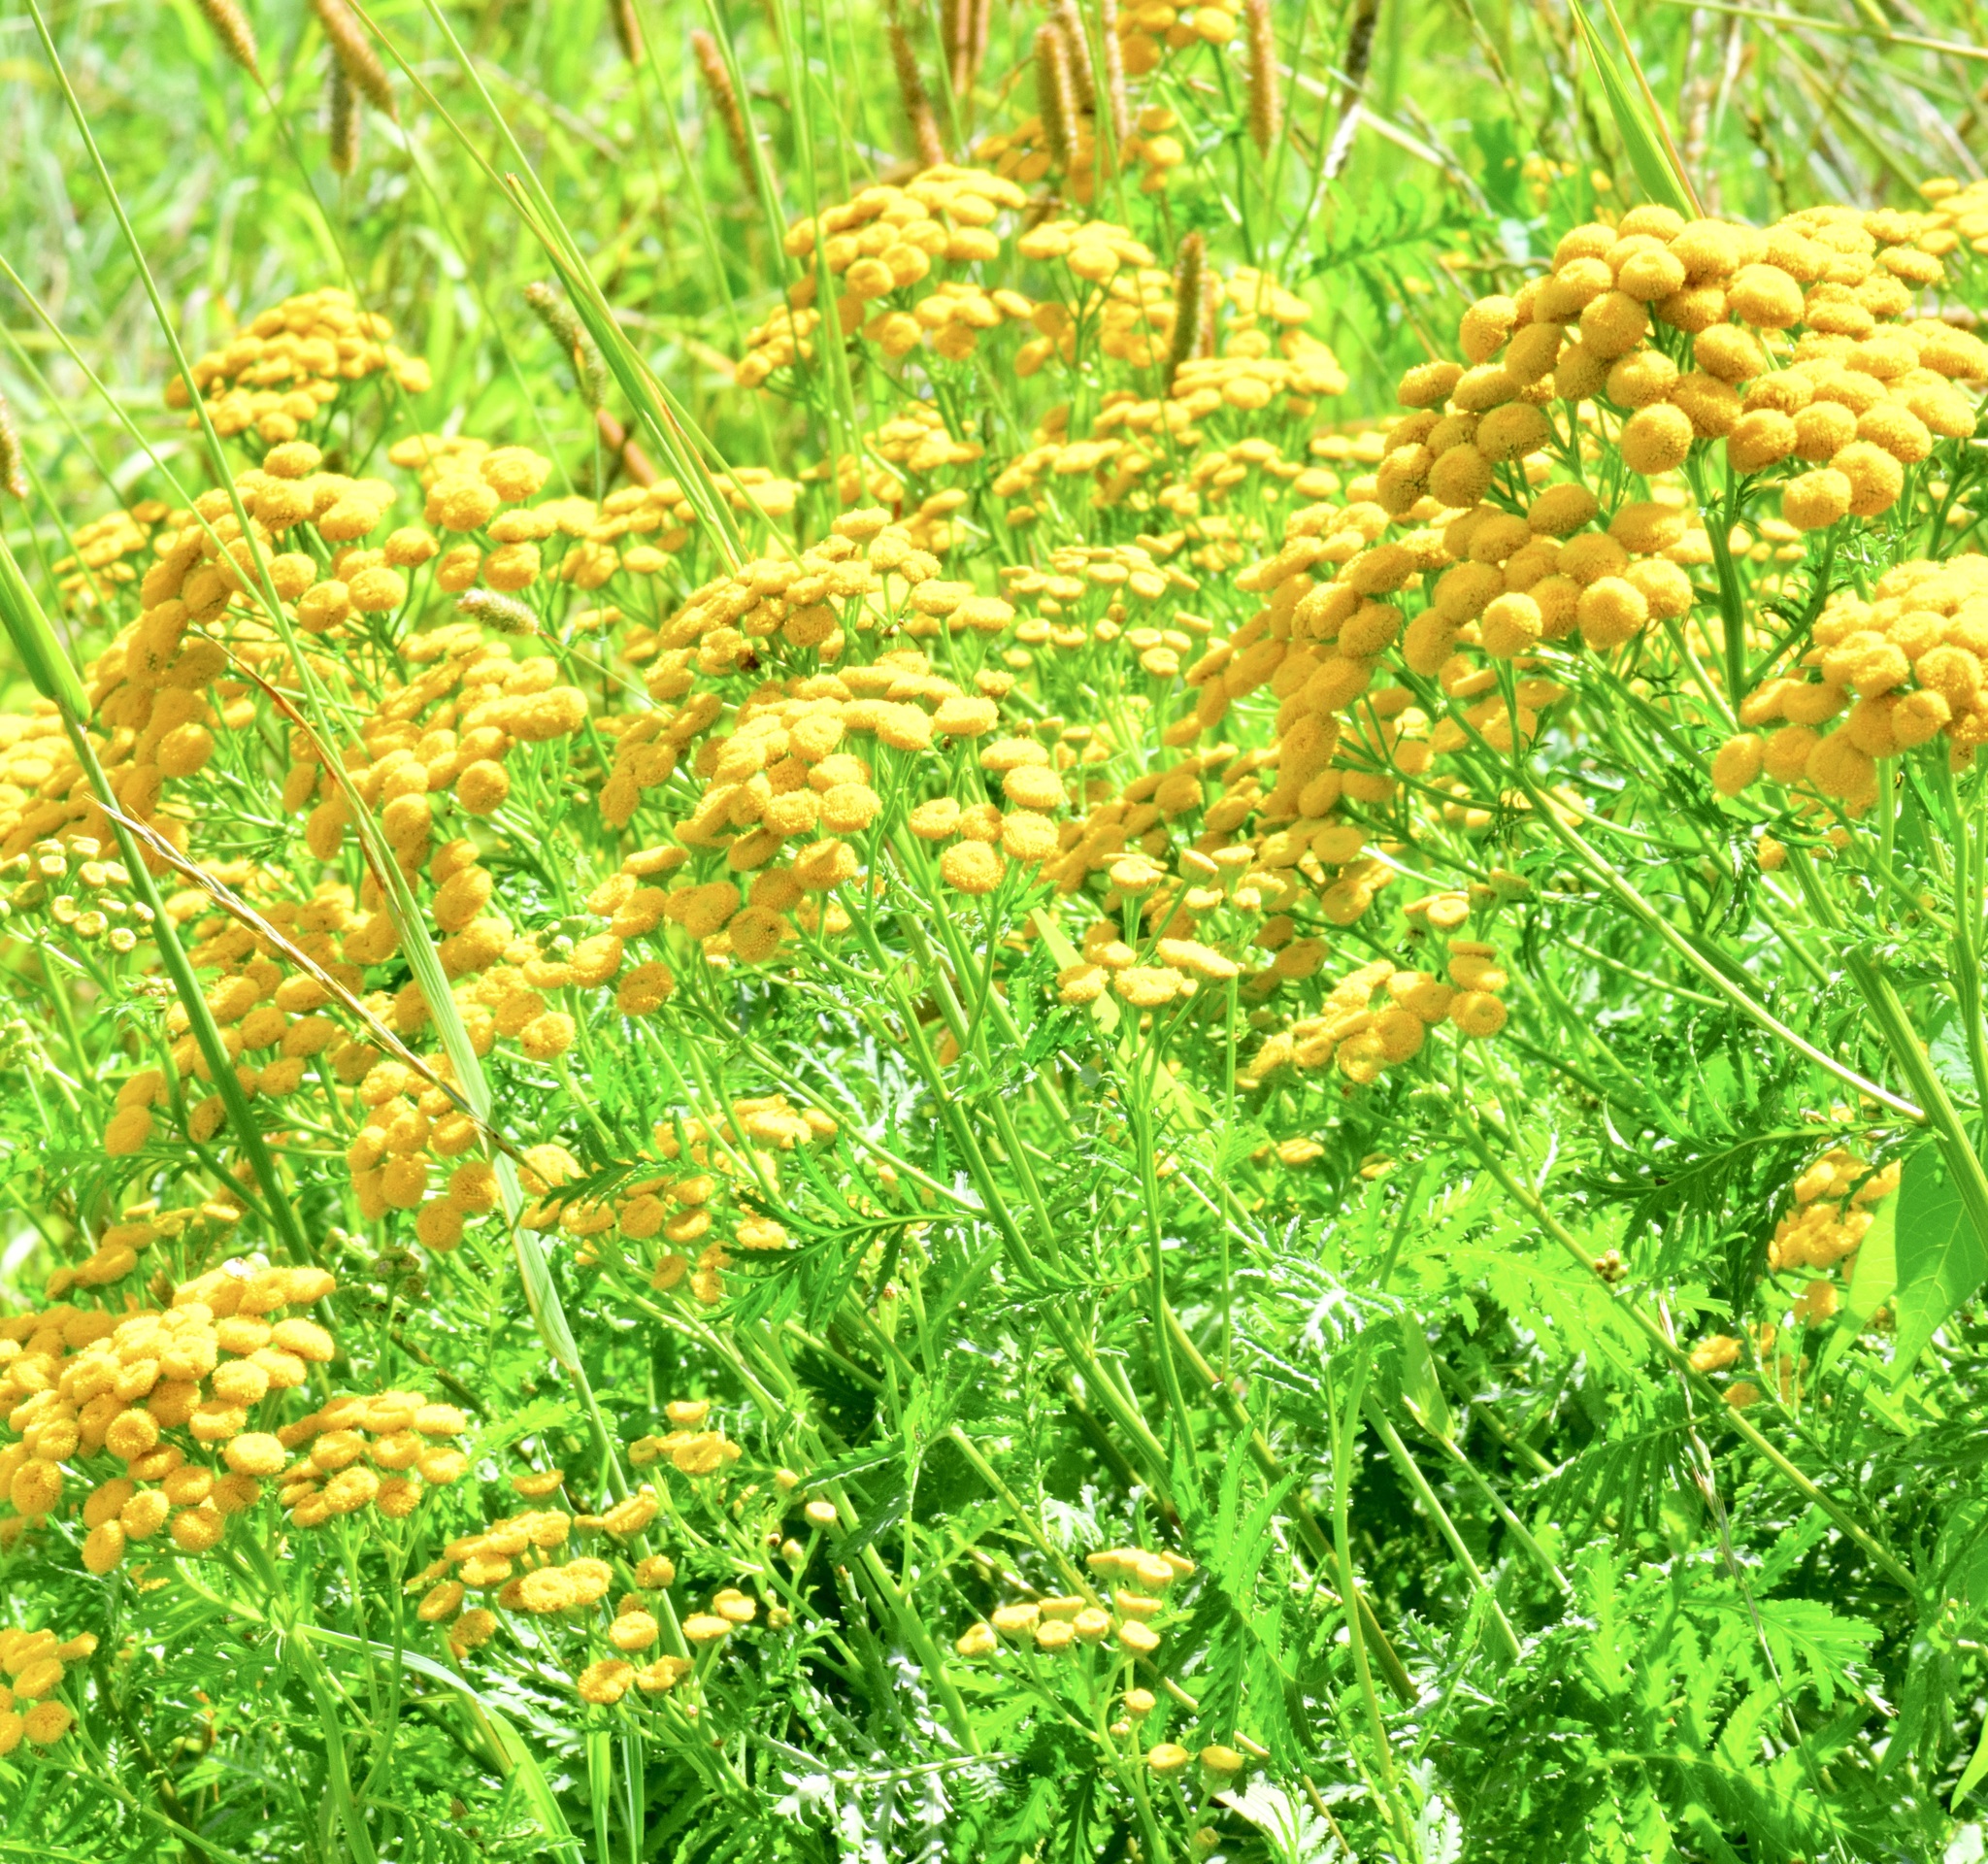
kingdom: Plantae
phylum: Tracheophyta
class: Magnoliopsida
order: Asterales
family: Asteraceae
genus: Tanacetum
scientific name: Tanacetum vulgare
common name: Common tansy
